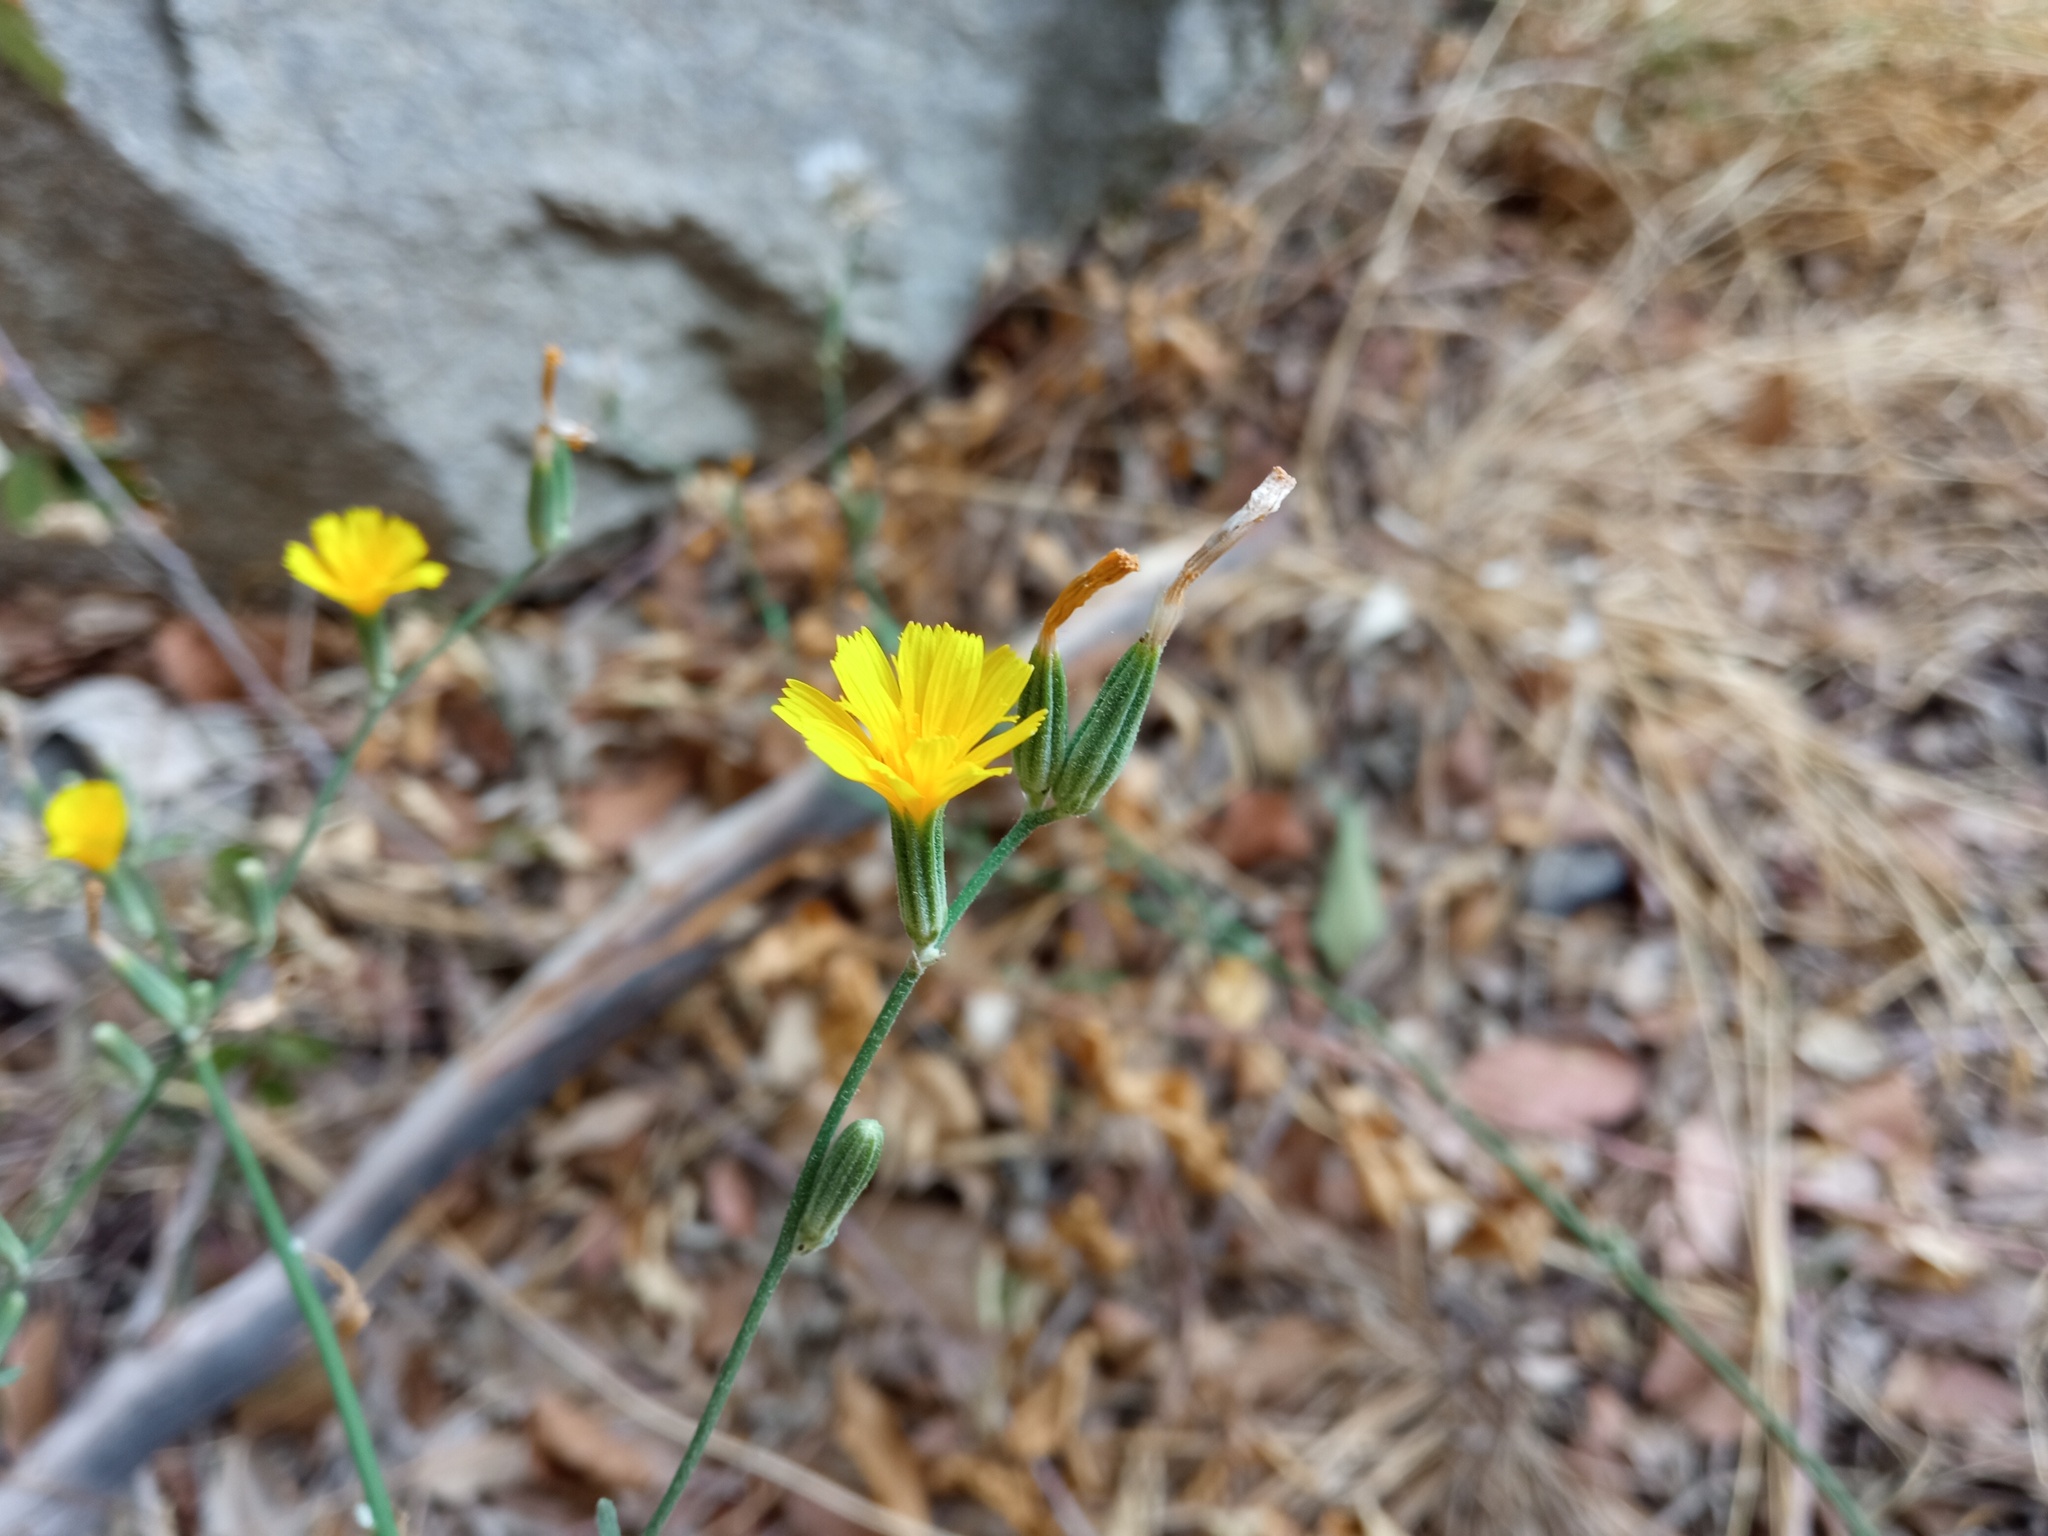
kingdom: Plantae
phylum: Tracheophyta
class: Magnoliopsida
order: Asterales
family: Asteraceae
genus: Chondrilla
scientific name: Chondrilla juncea
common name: Skeleton weed
